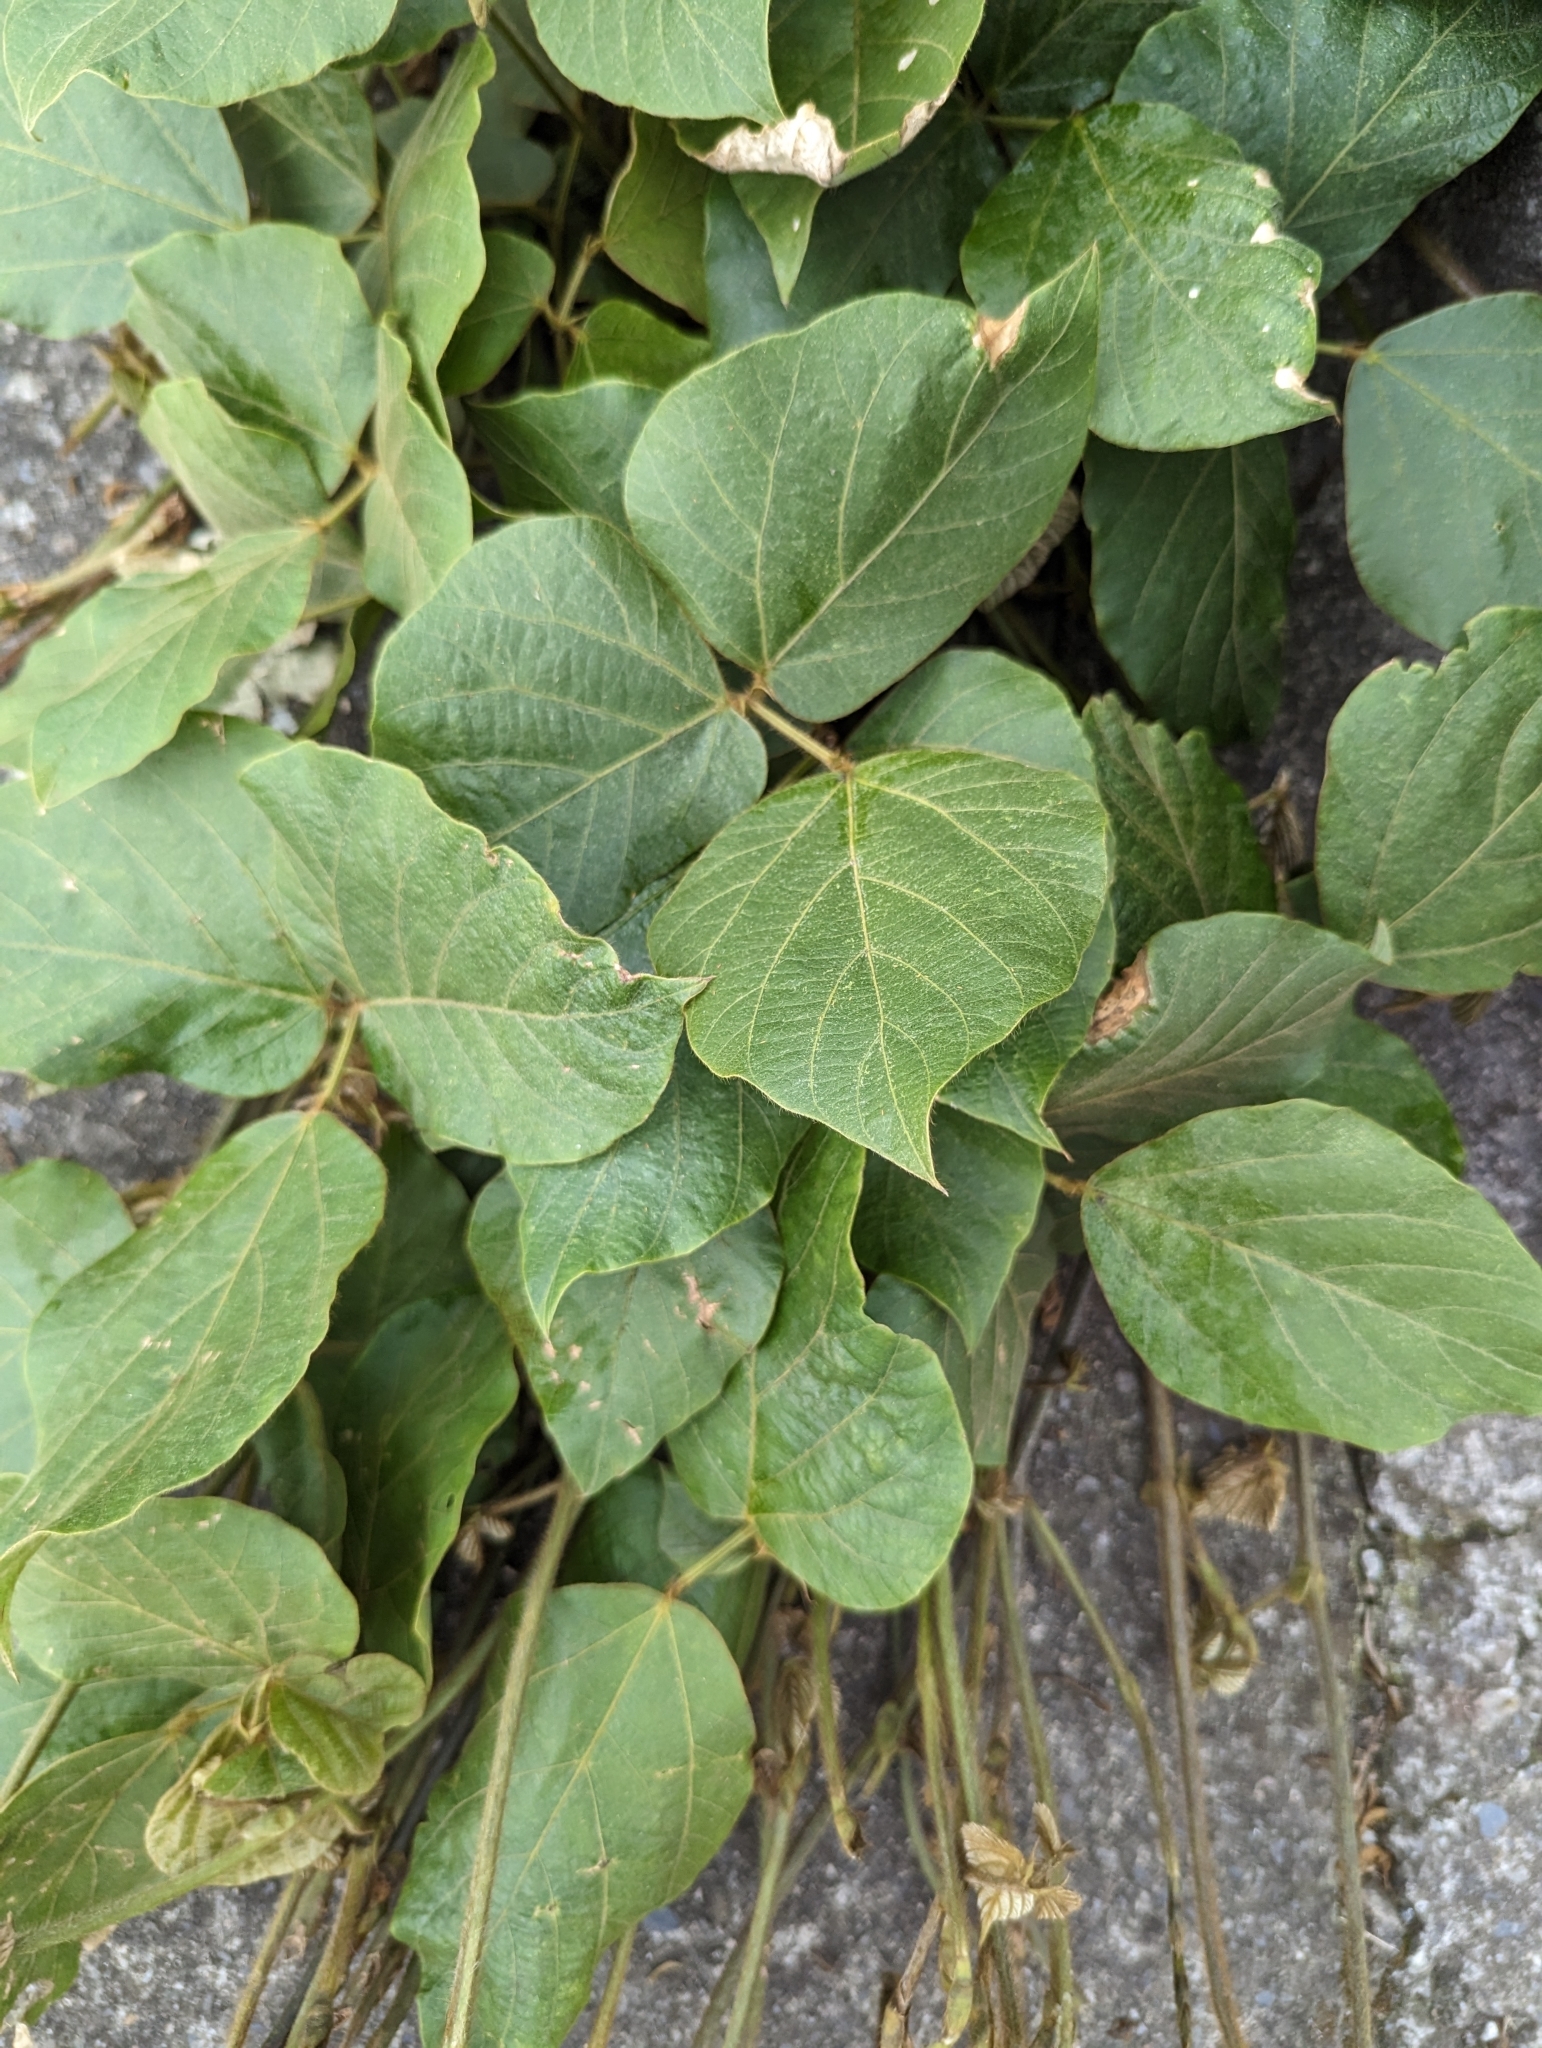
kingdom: Plantae
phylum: Tracheophyta
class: Magnoliopsida
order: Fabales
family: Fabaceae
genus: Pueraria
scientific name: Pueraria montana
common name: Kudzu
